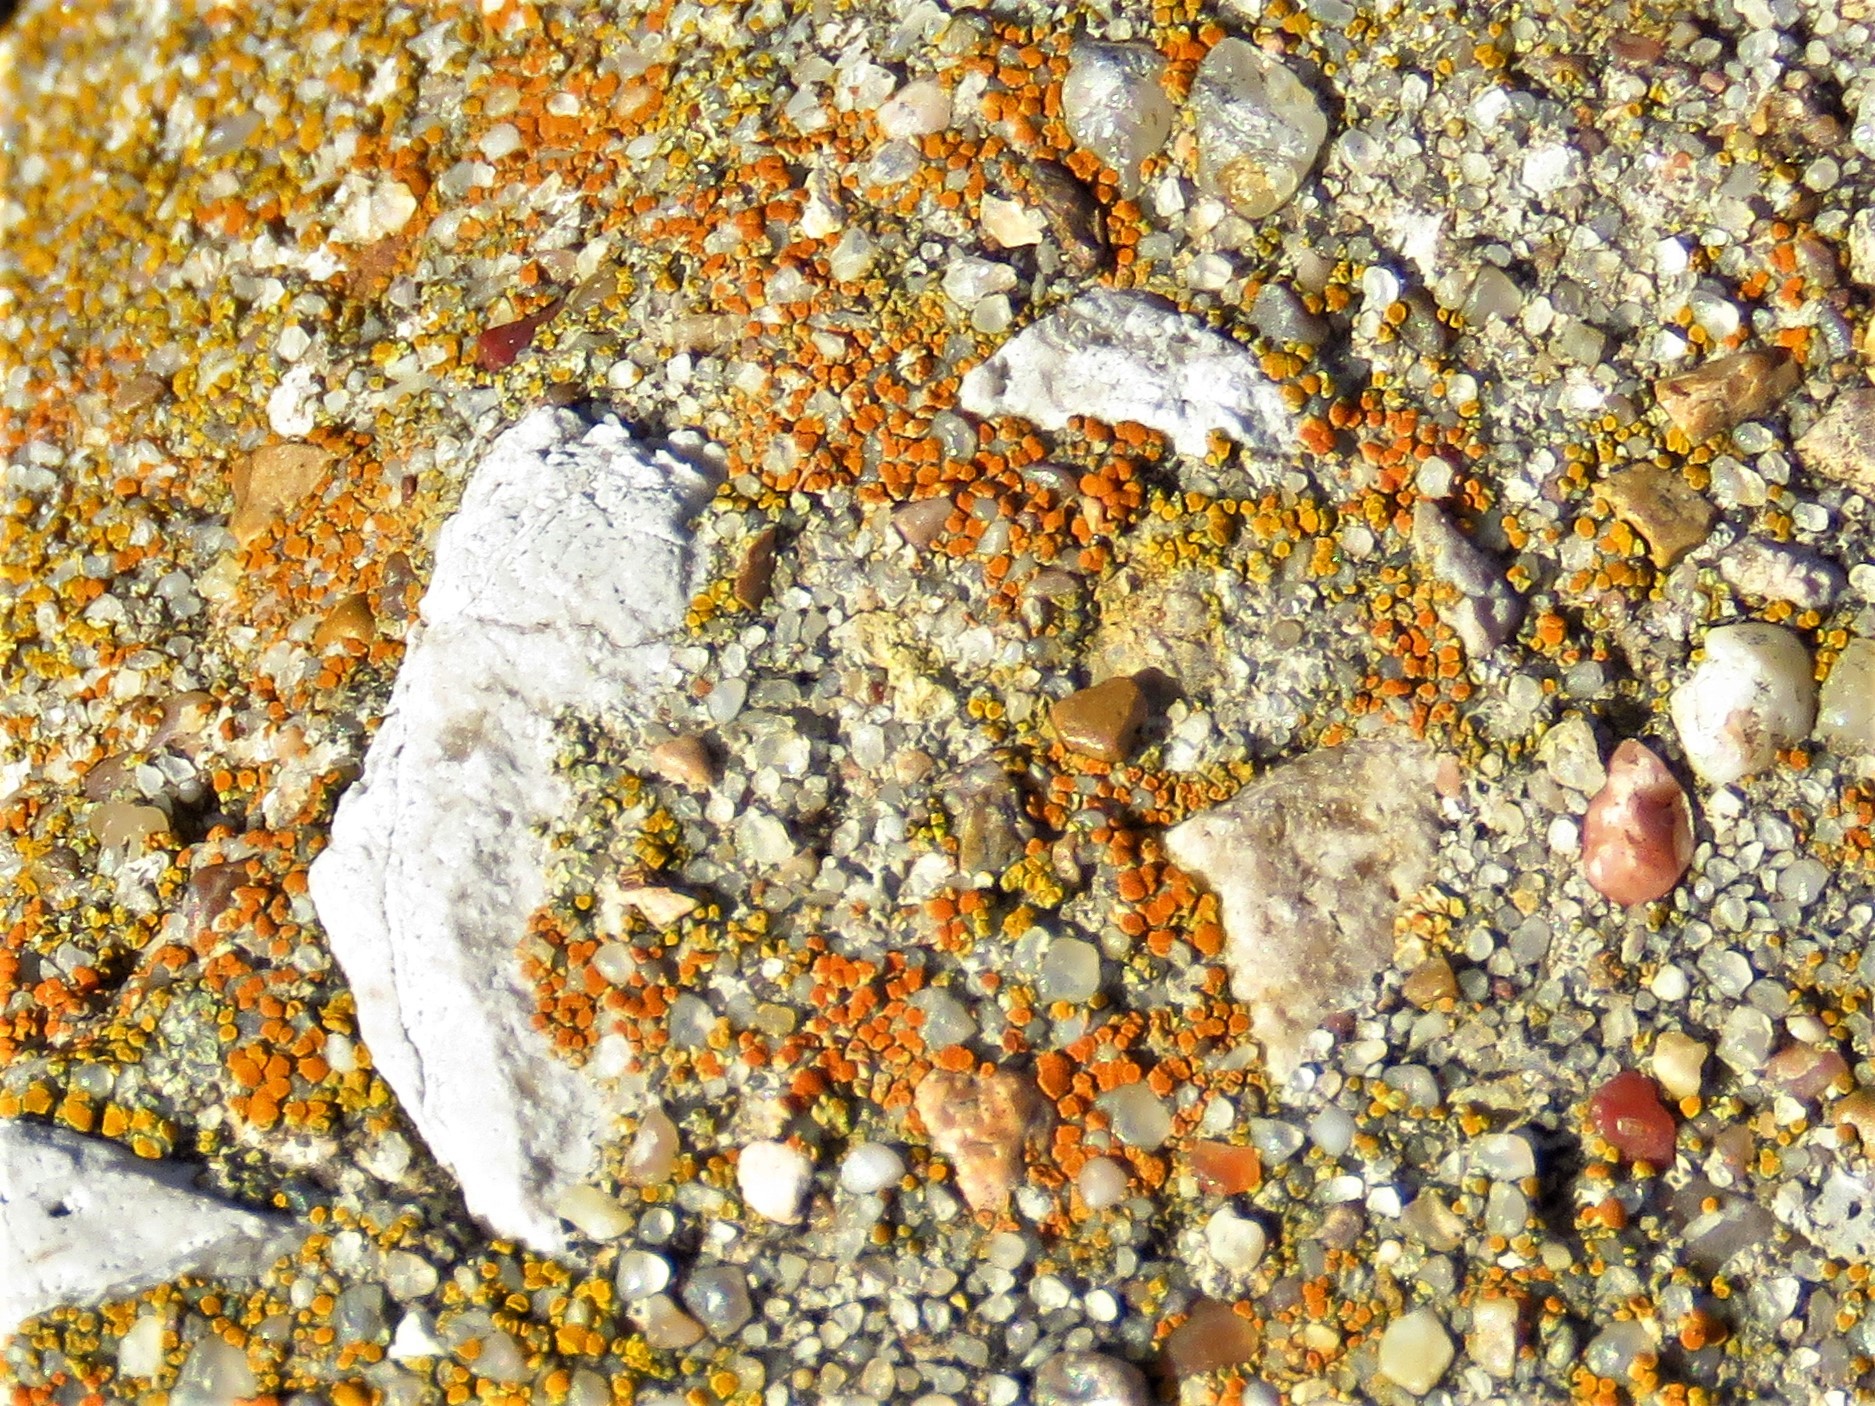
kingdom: Fungi
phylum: Ascomycota
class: Lecanoromycetes
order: Teloschistales
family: Teloschistaceae
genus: Xanthocarpia
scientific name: Xanthocarpia feracissima
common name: Sidewalk firedot
